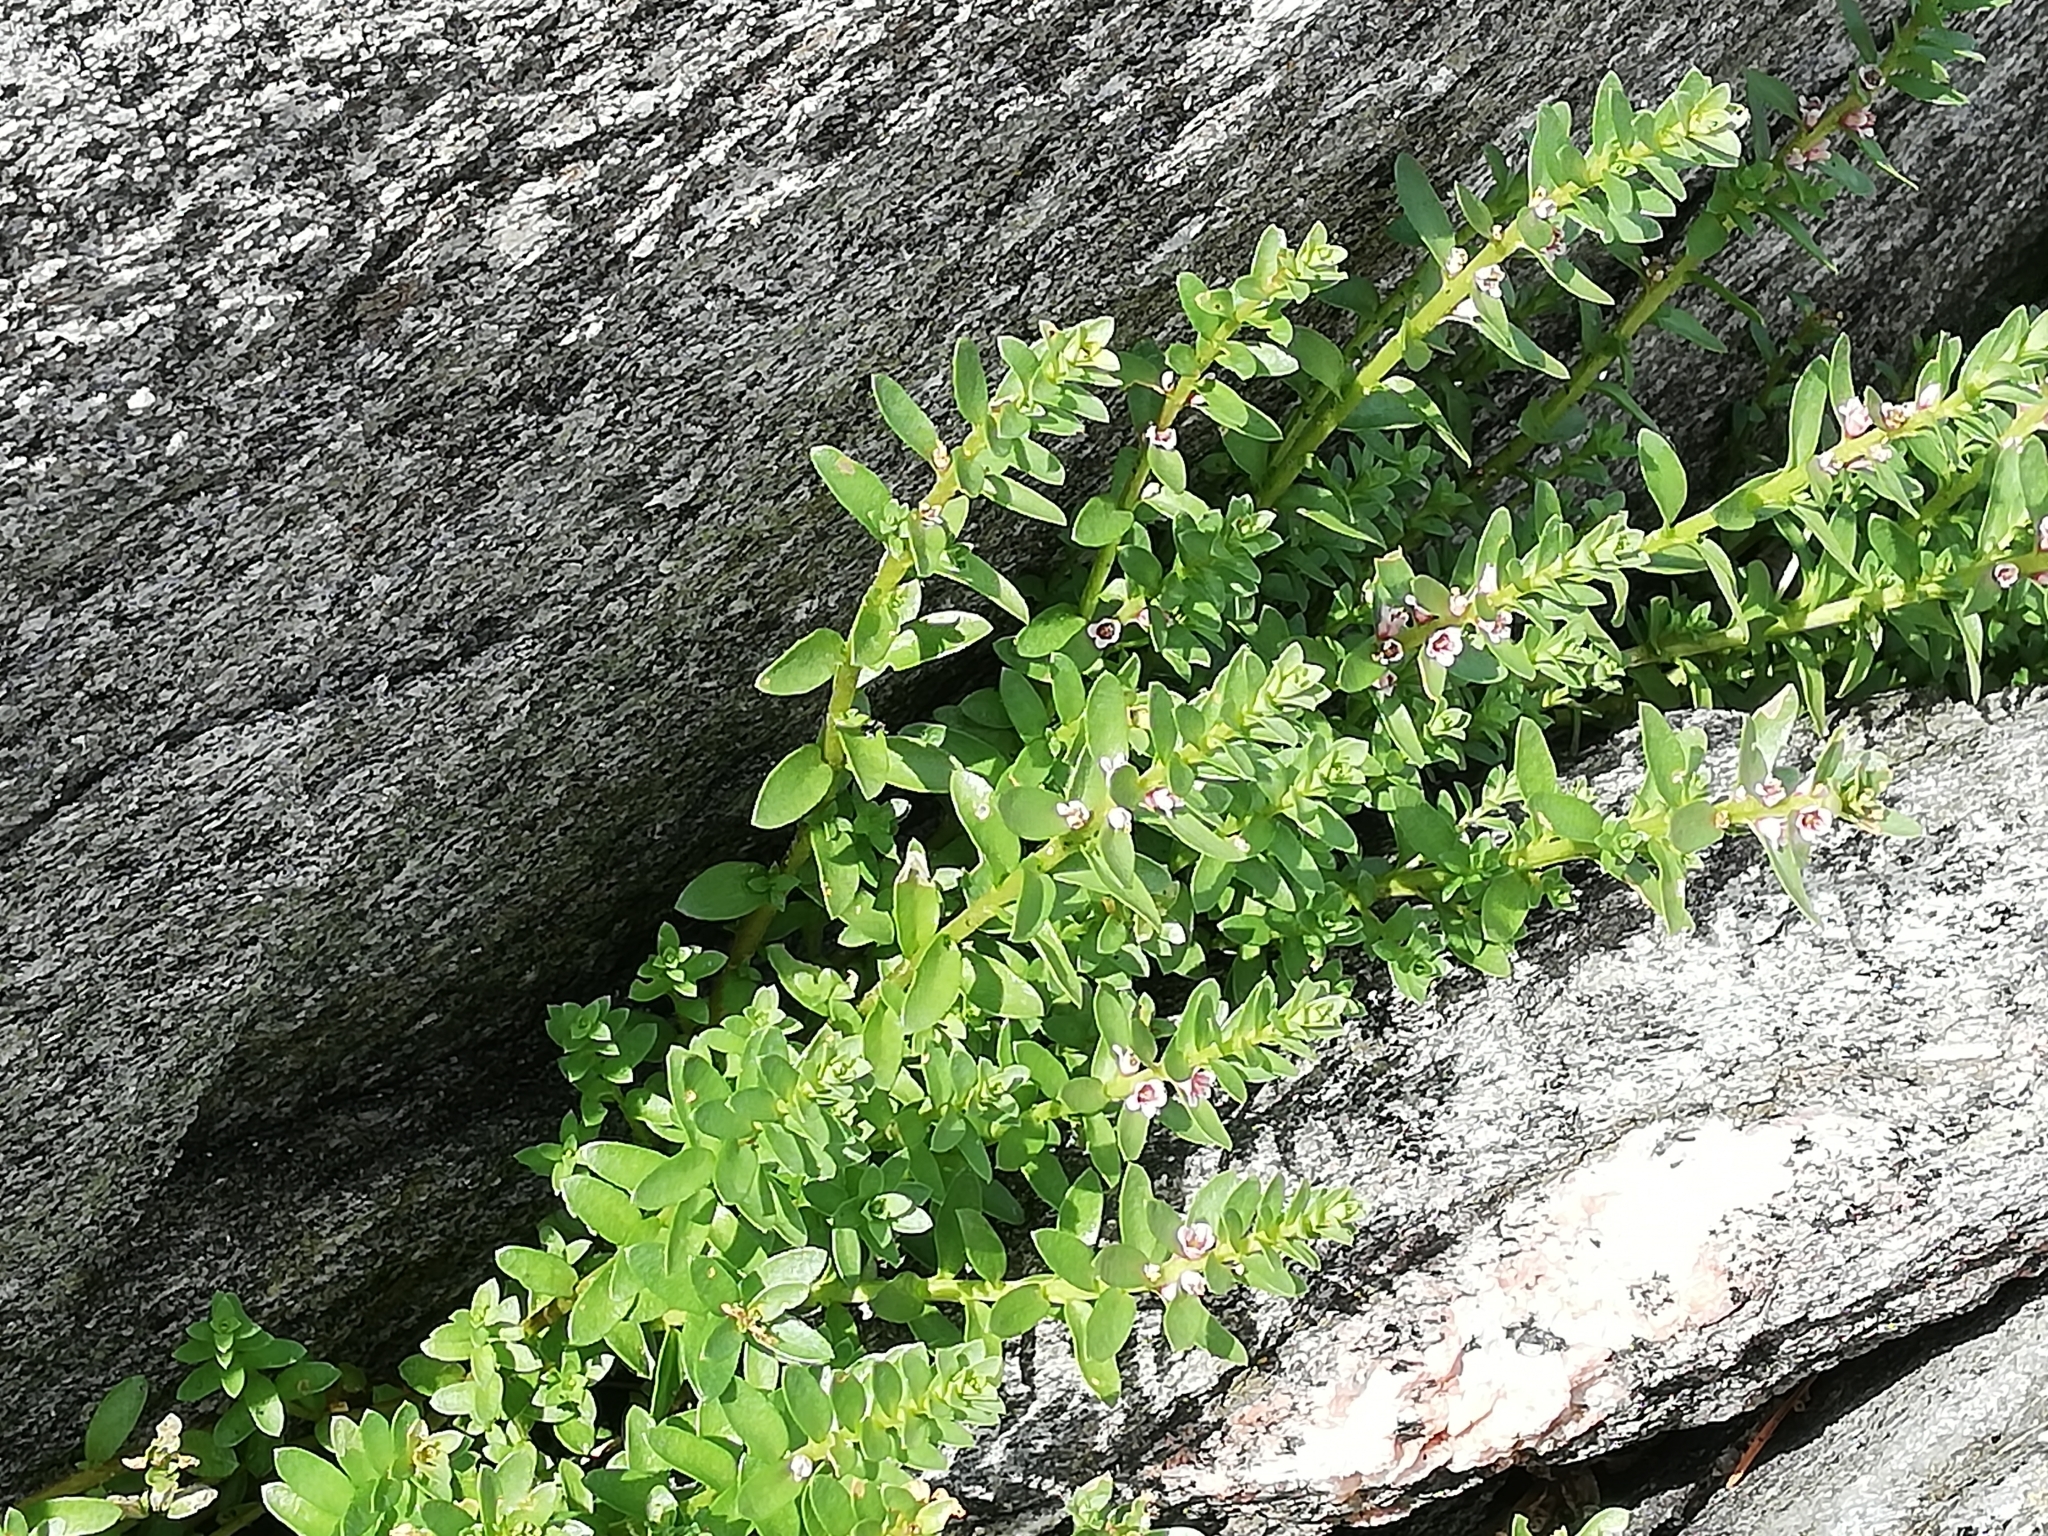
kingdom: Plantae
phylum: Tracheophyta
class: Magnoliopsida
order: Ericales
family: Primulaceae
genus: Lysimachia
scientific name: Lysimachia maritima
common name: Sea milkwort
